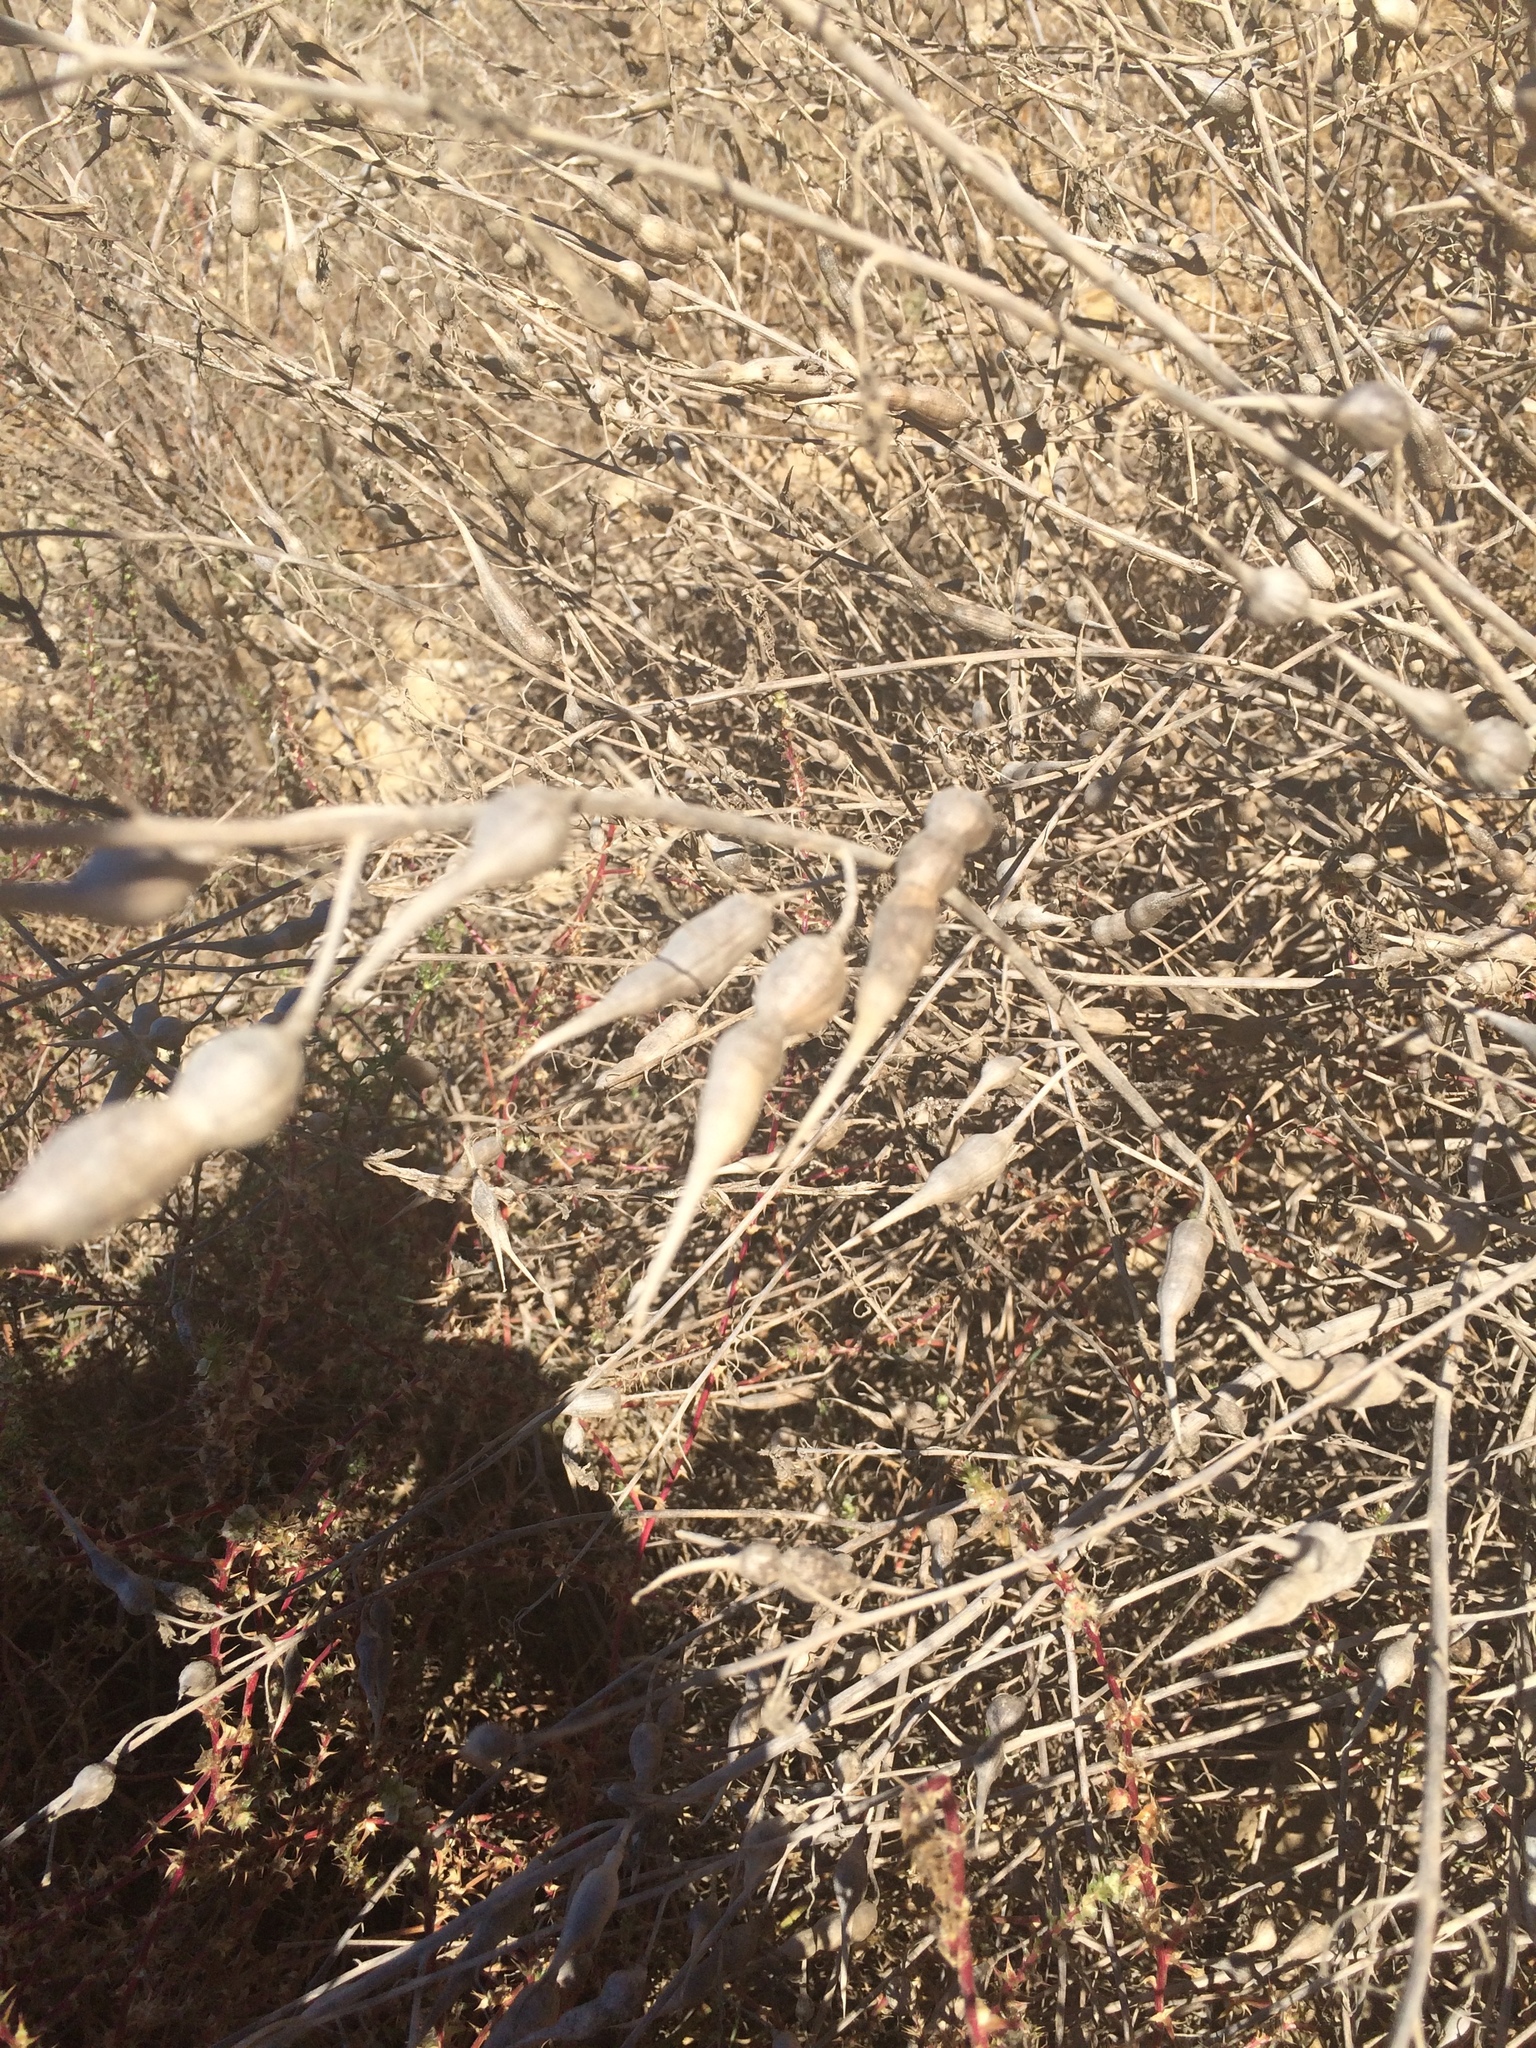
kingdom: Plantae
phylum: Tracheophyta
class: Magnoliopsida
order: Brassicales
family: Brassicaceae
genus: Raphanus
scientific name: Raphanus sativus
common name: Cultivated radish
